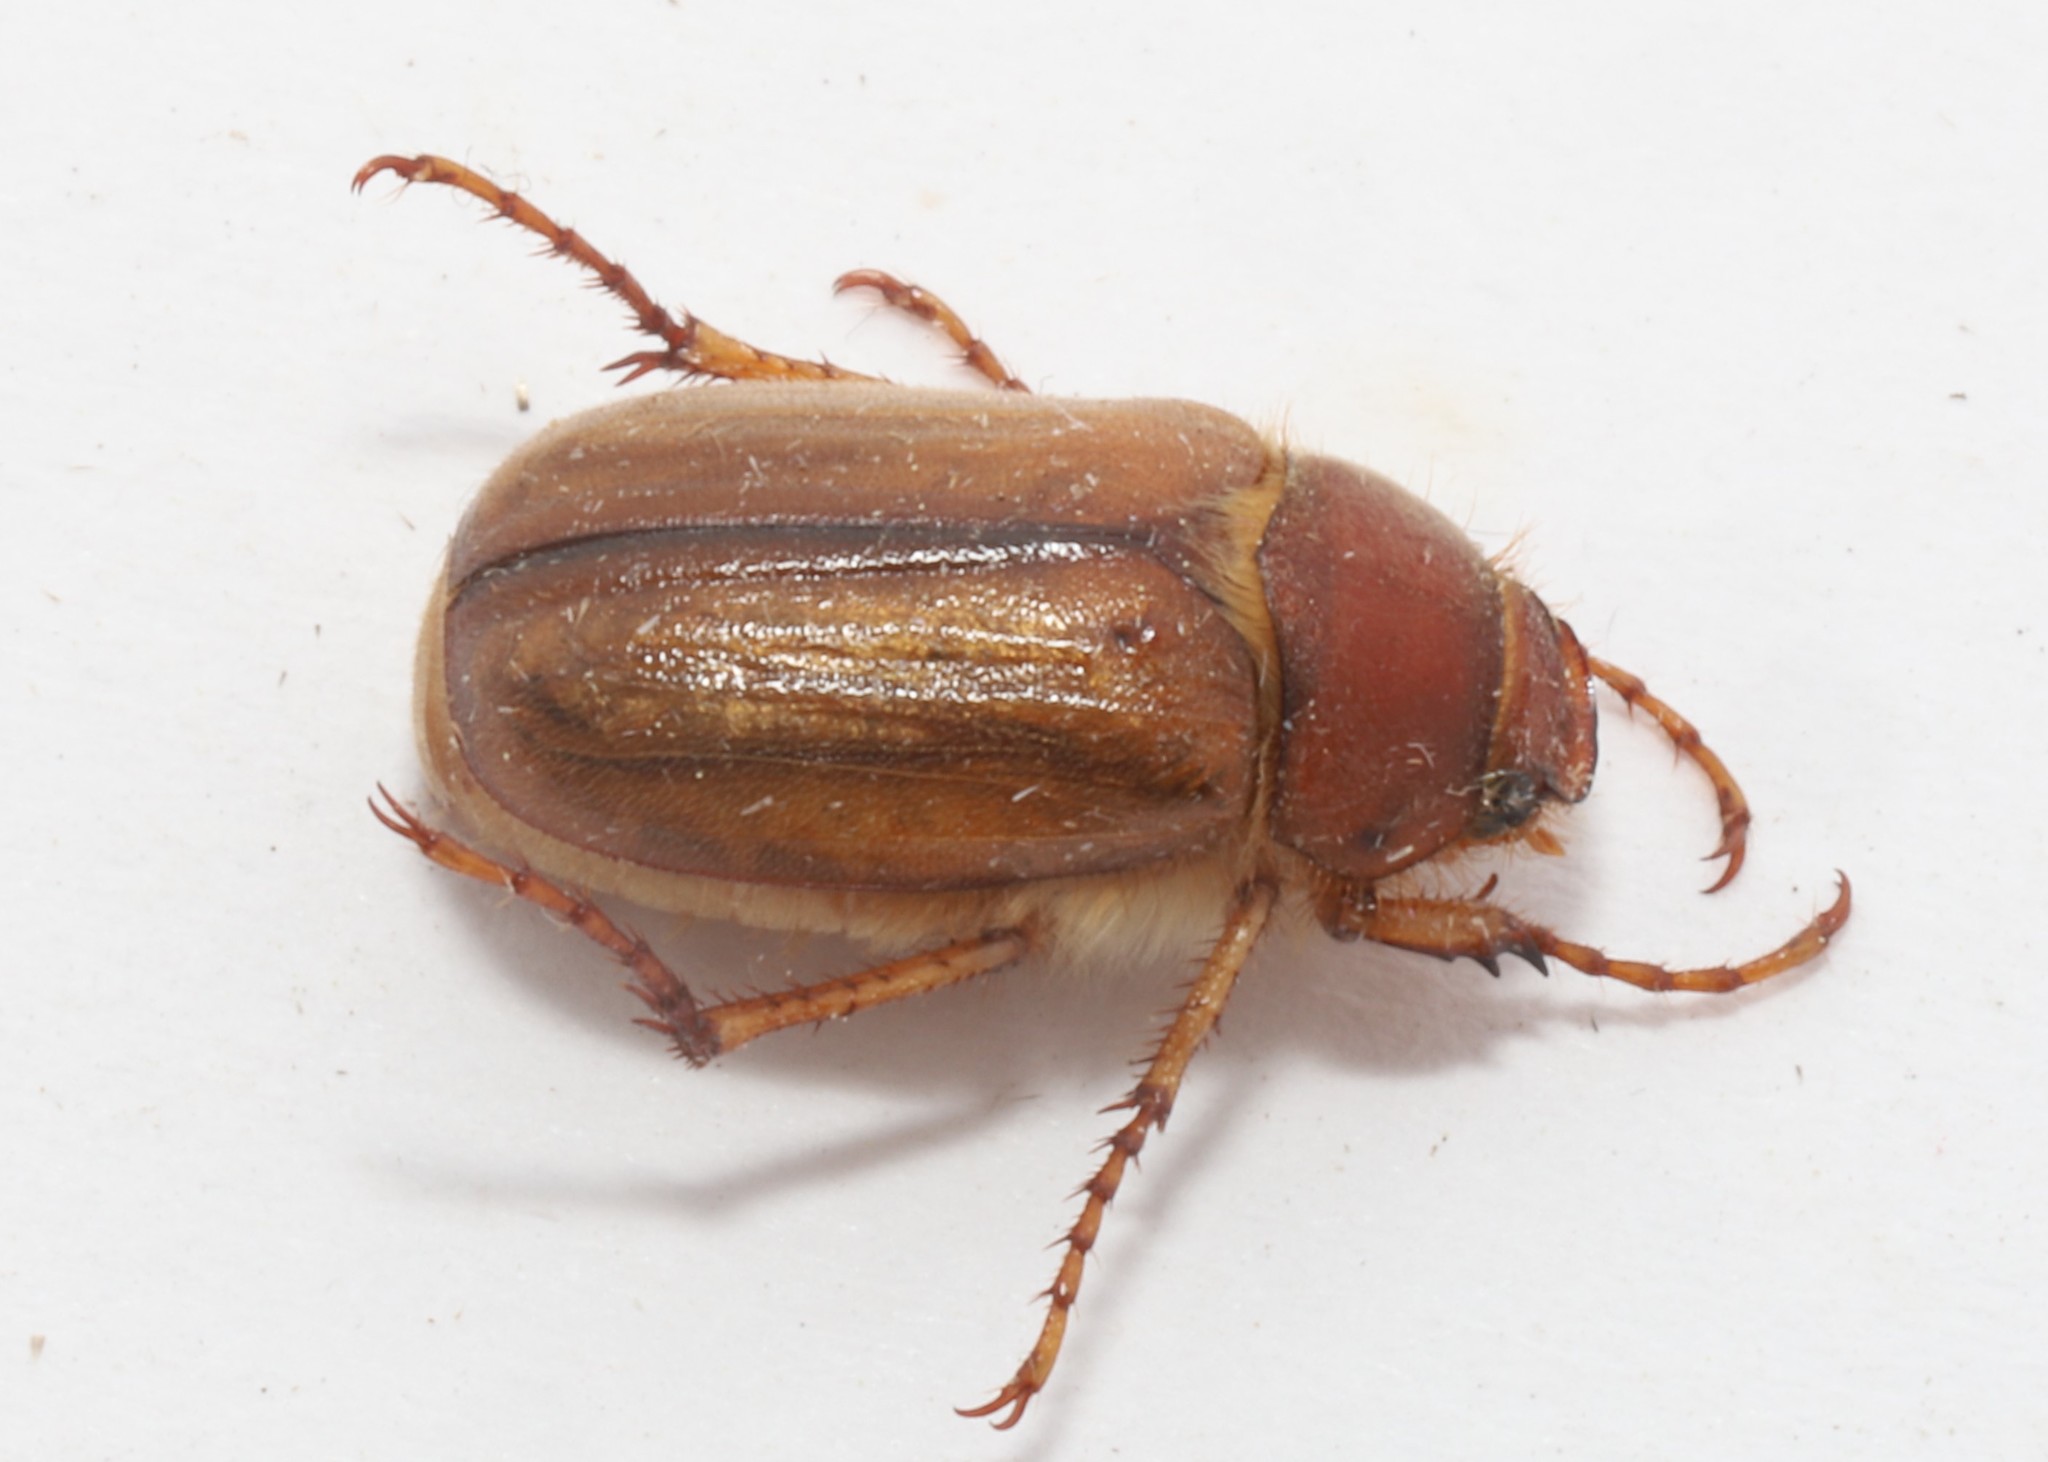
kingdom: Animalia
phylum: Arthropoda
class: Insecta
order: Coleoptera
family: Scarabaeidae
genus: Amphimallon
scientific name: Amphimallon majale
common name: European chafer
